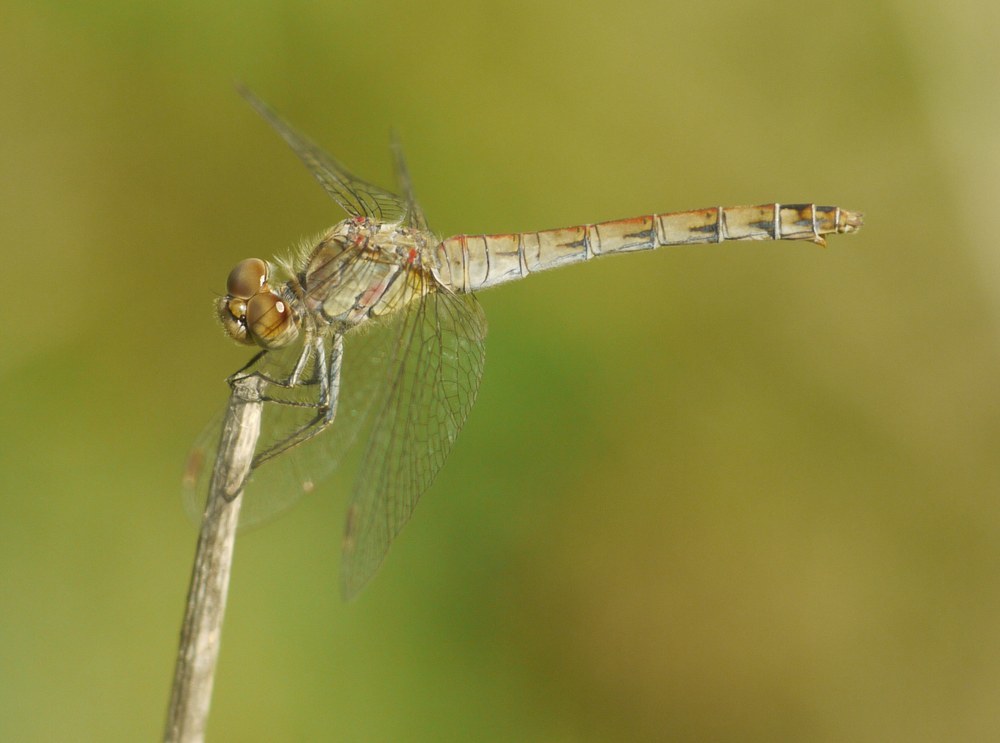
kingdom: Animalia
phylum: Arthropoda
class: Insecta
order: Odonata
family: Libellulidae
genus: Sympetrum
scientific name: Sympetrum striolatum
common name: Common darter
